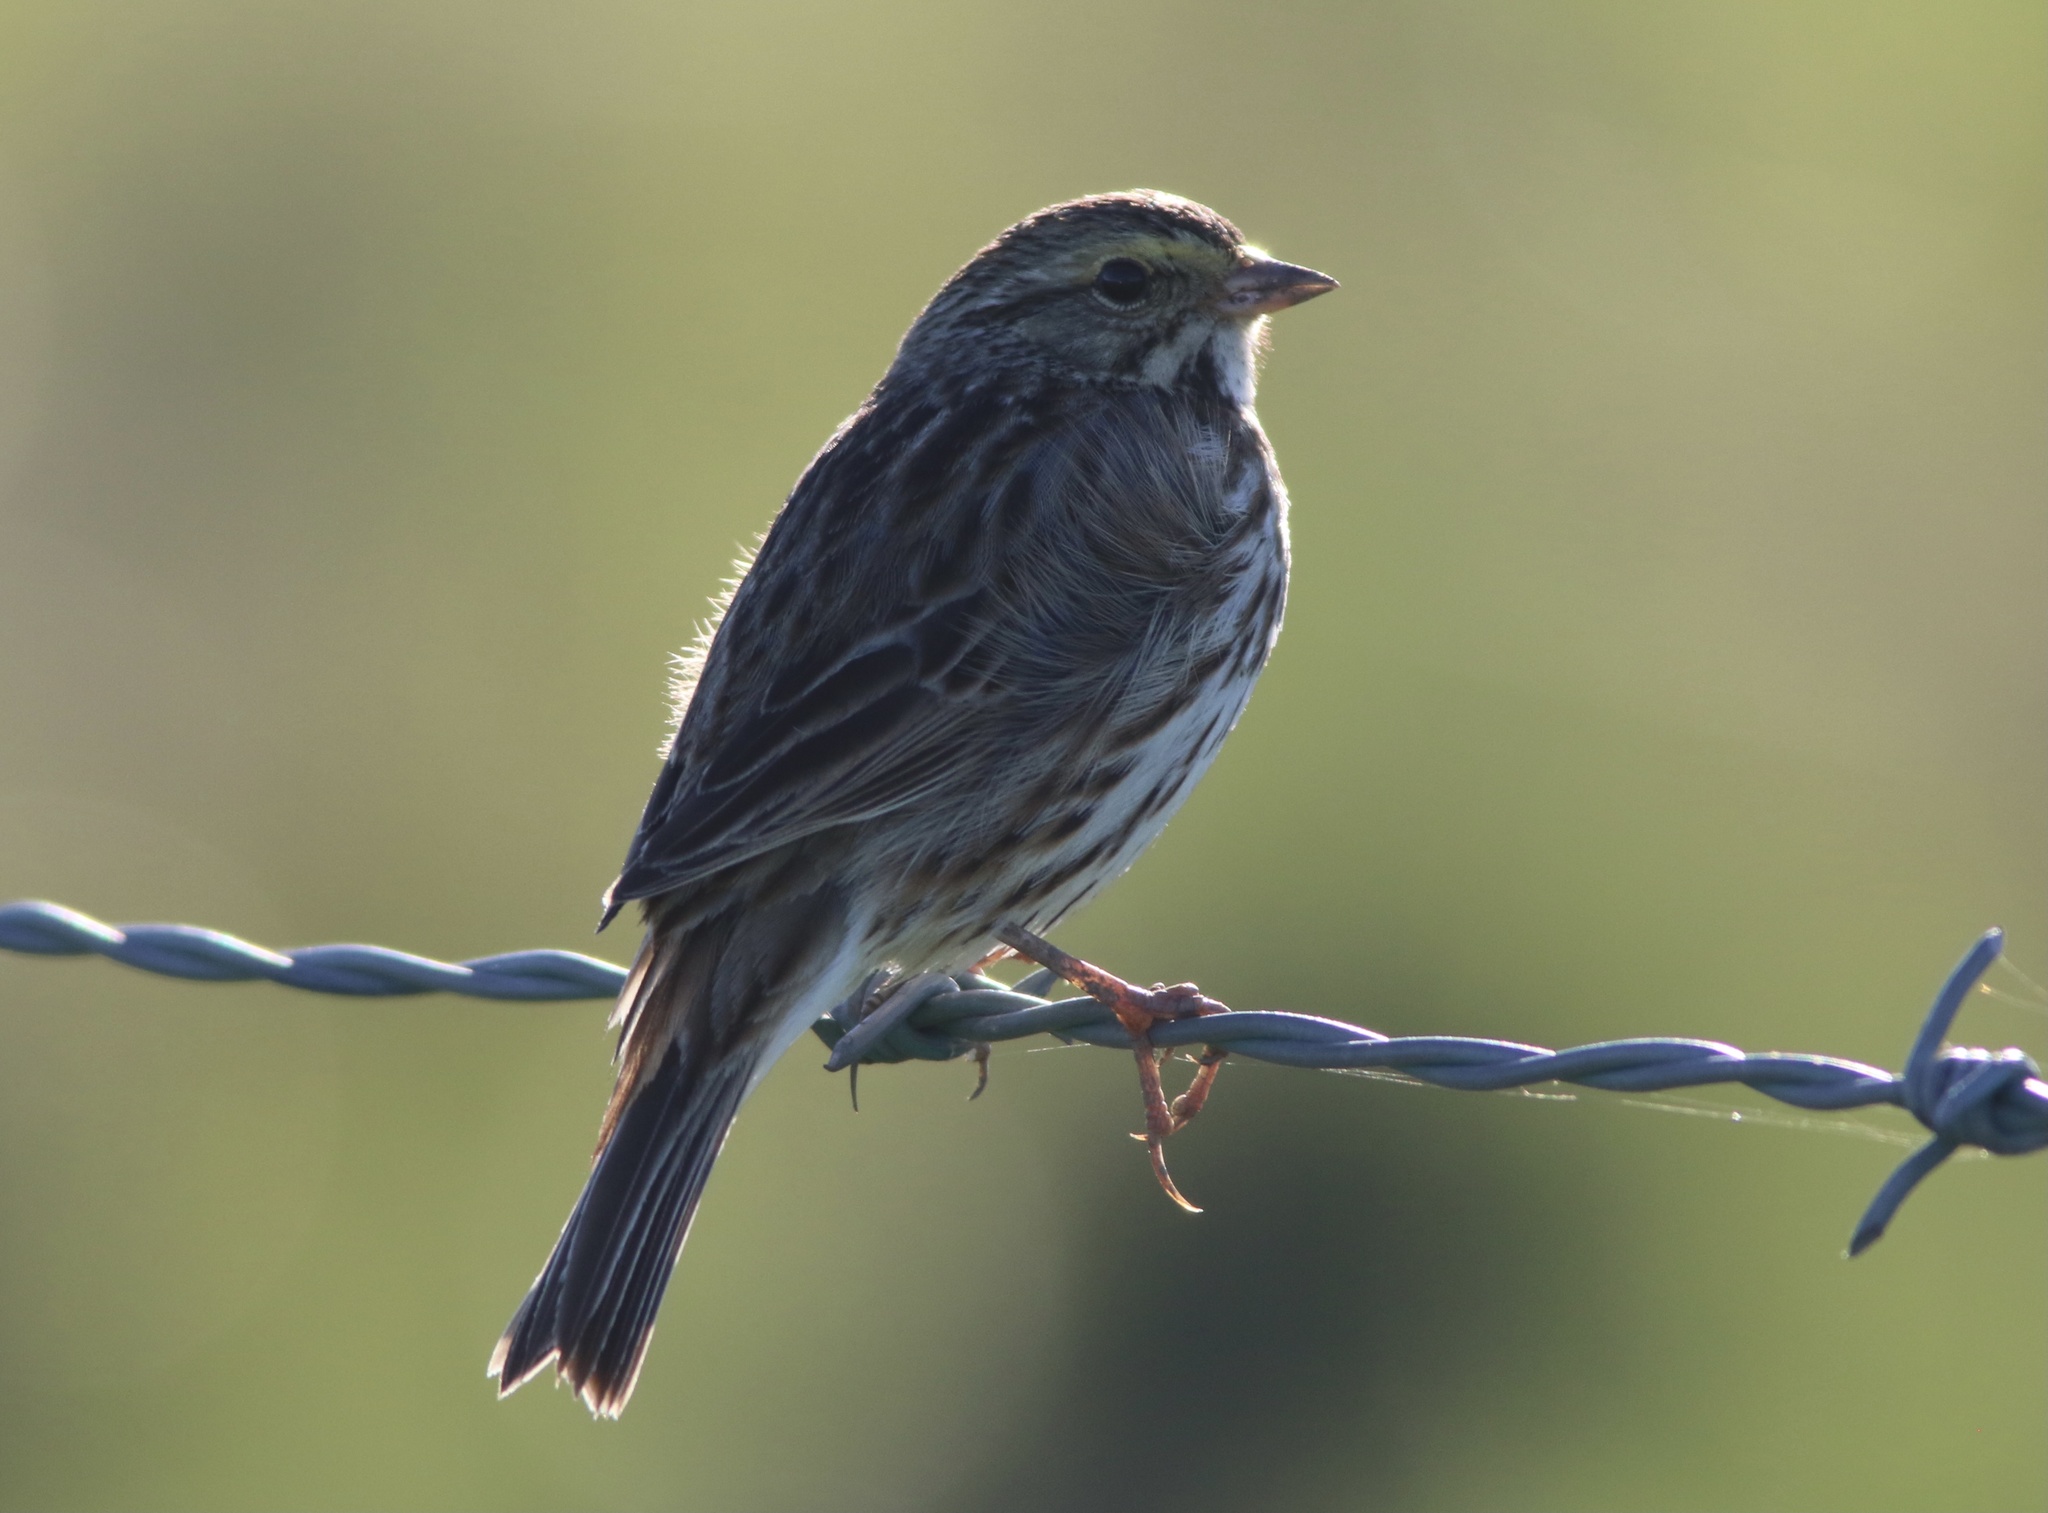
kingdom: Animalia
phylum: Chordata
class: Aves
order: Passeriformes
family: Passerellidae
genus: Passerculus
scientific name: Passerculus sandwichensis
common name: Savannah sparrow
